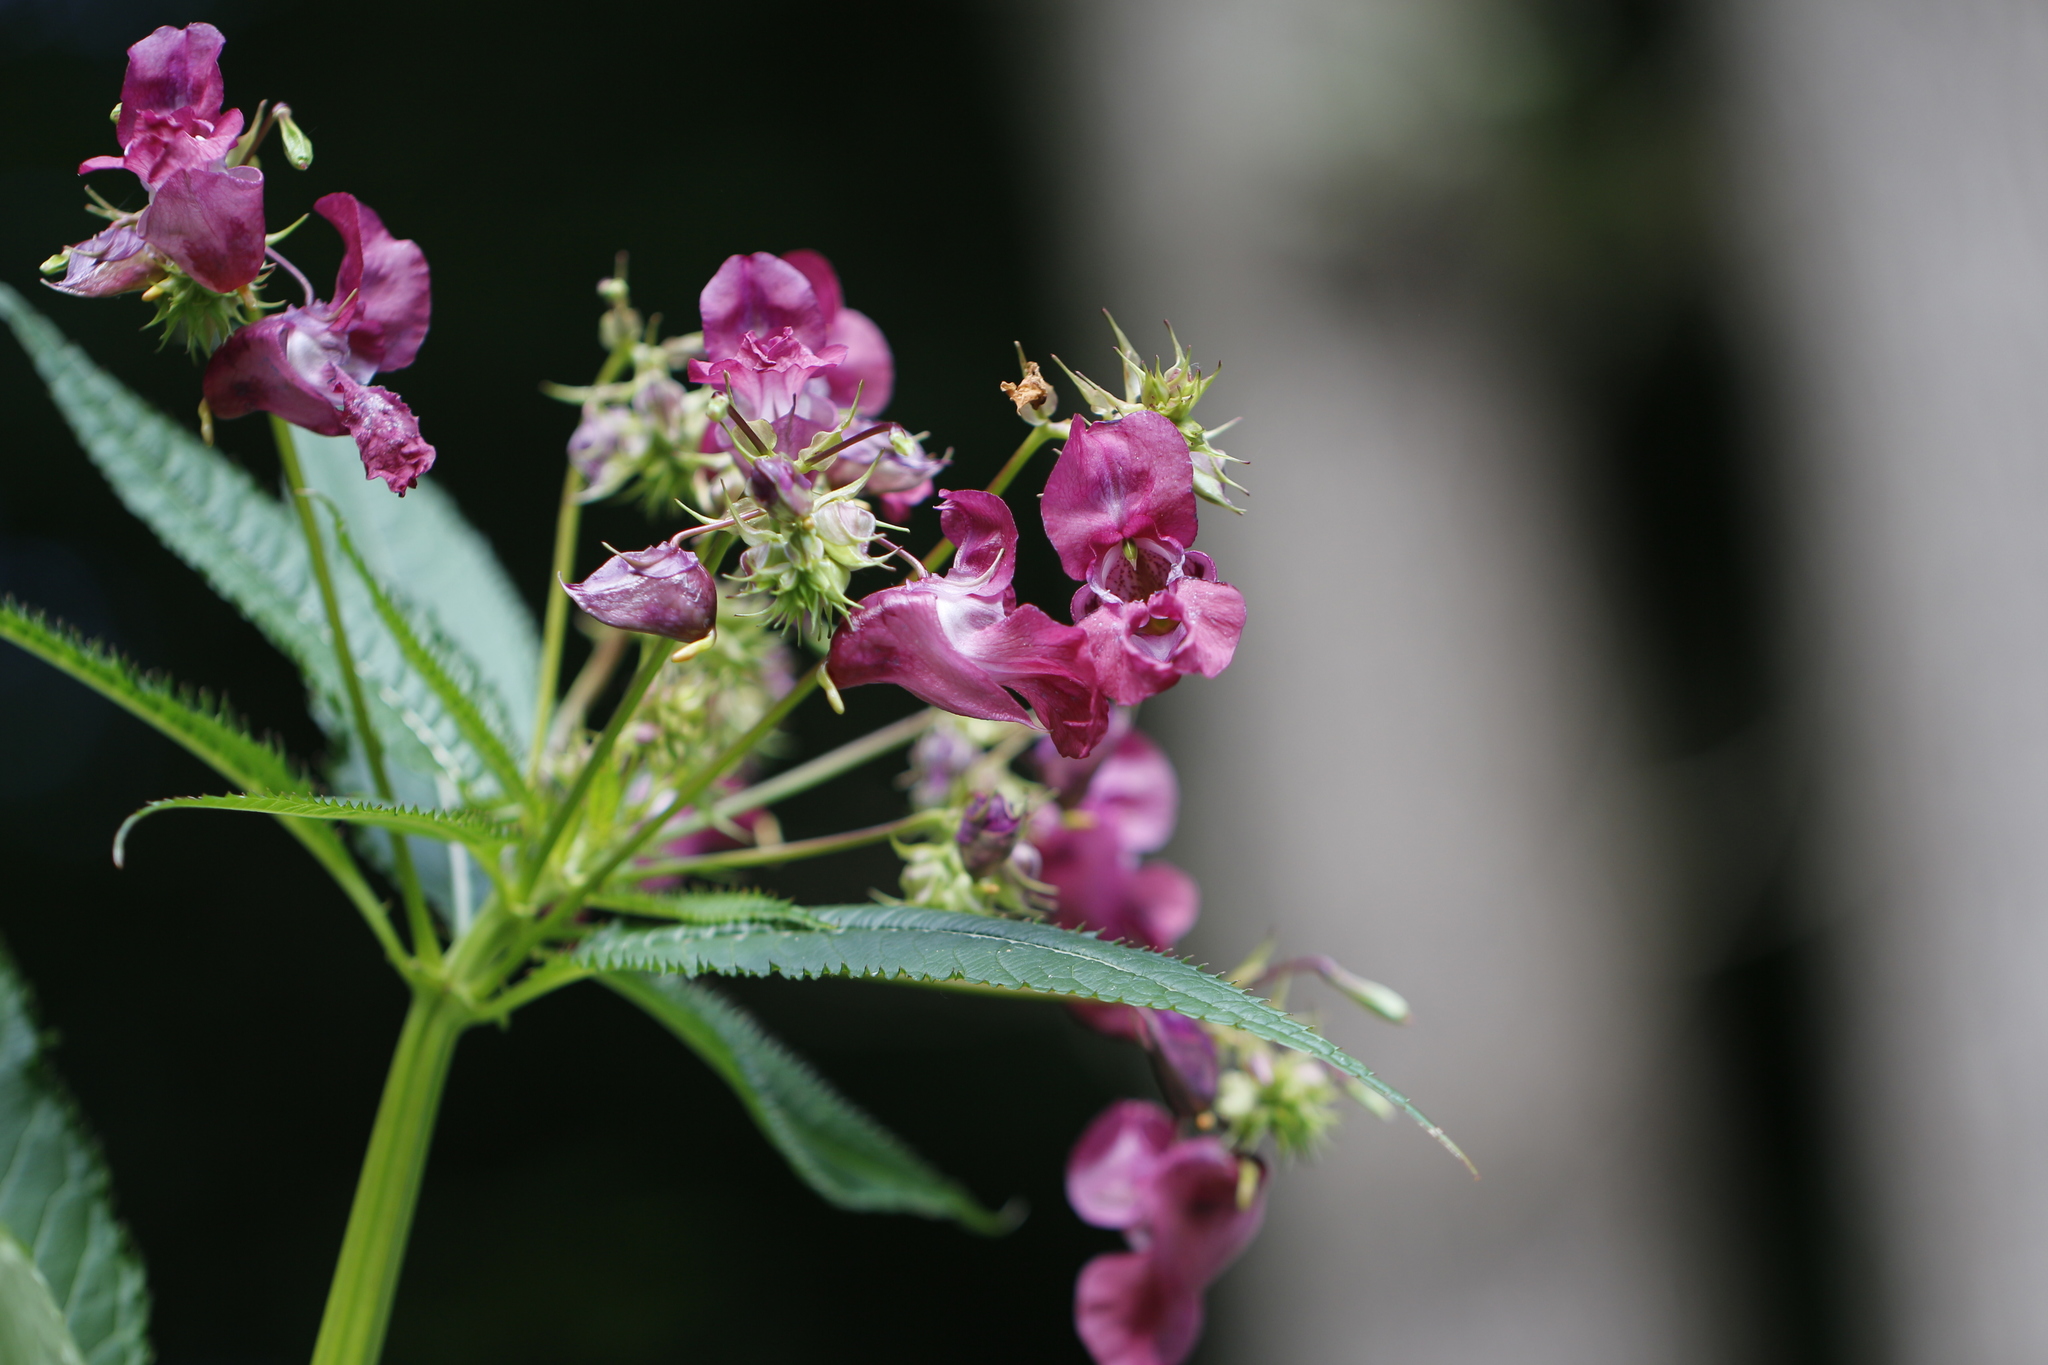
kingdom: Plantae
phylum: Tracheophyta
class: Magnoliopsida
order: Ericales
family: Balsaminaceae
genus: Impatiens
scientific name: Impatiens glandulifera
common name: Himalayan balsam
